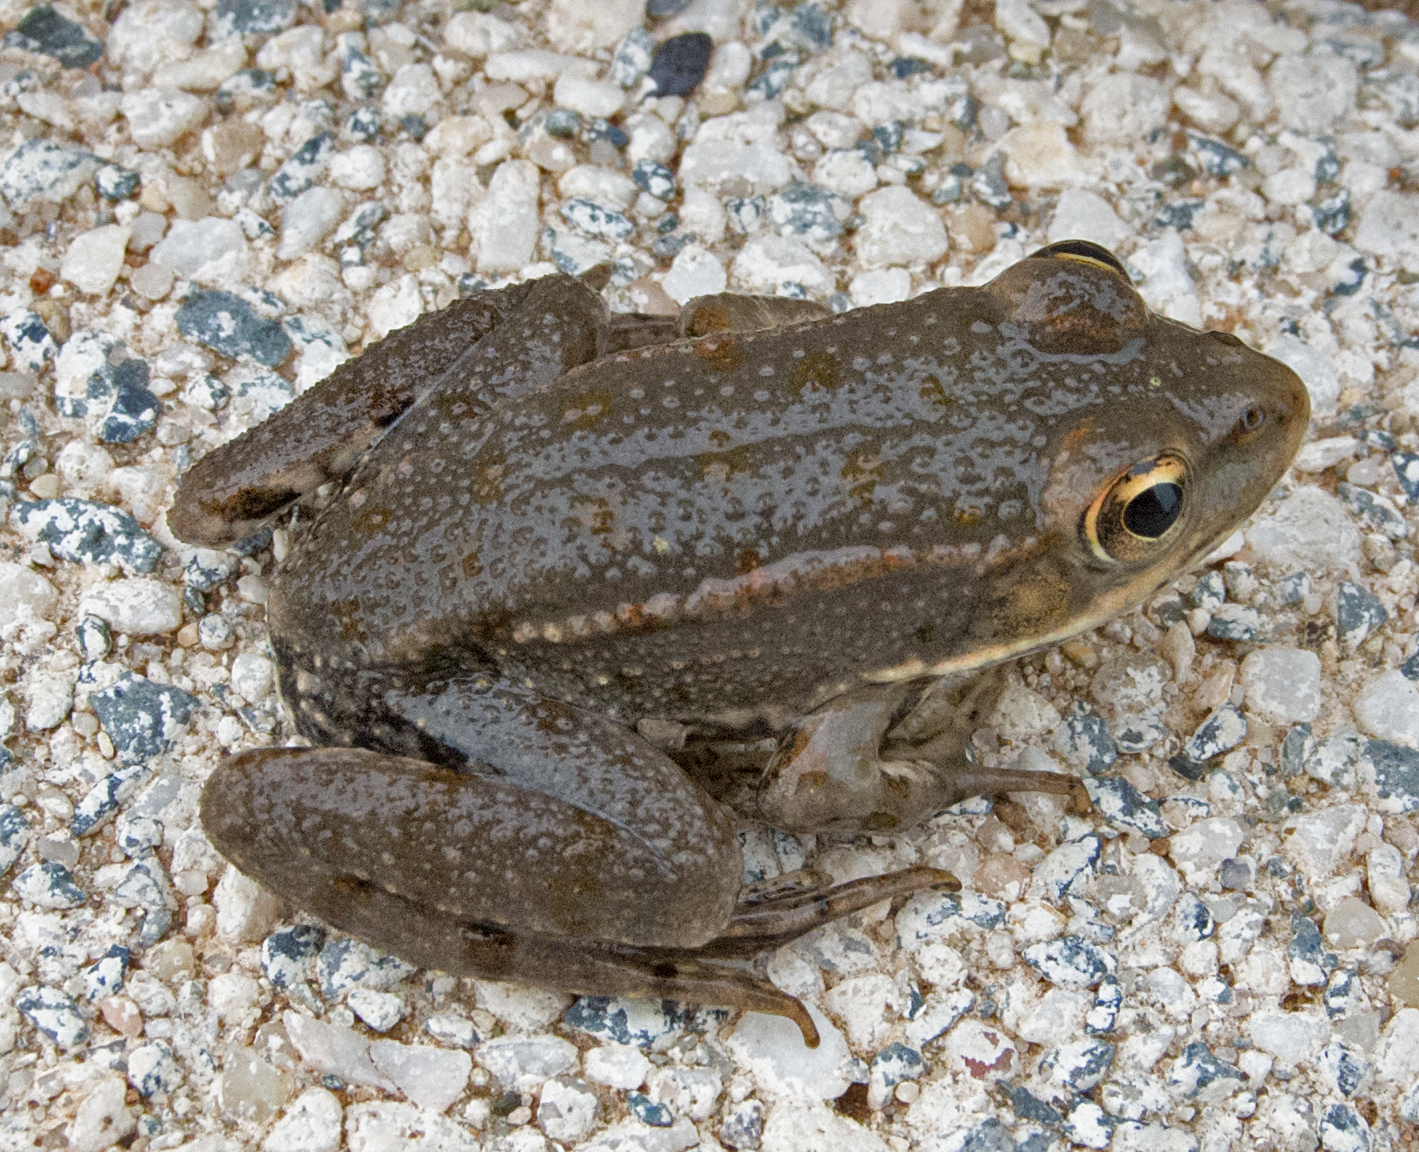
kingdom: Animalia
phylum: Chordata
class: Amphibia
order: Anura
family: Ranidae
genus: Pelophylax
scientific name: Pelophylax
